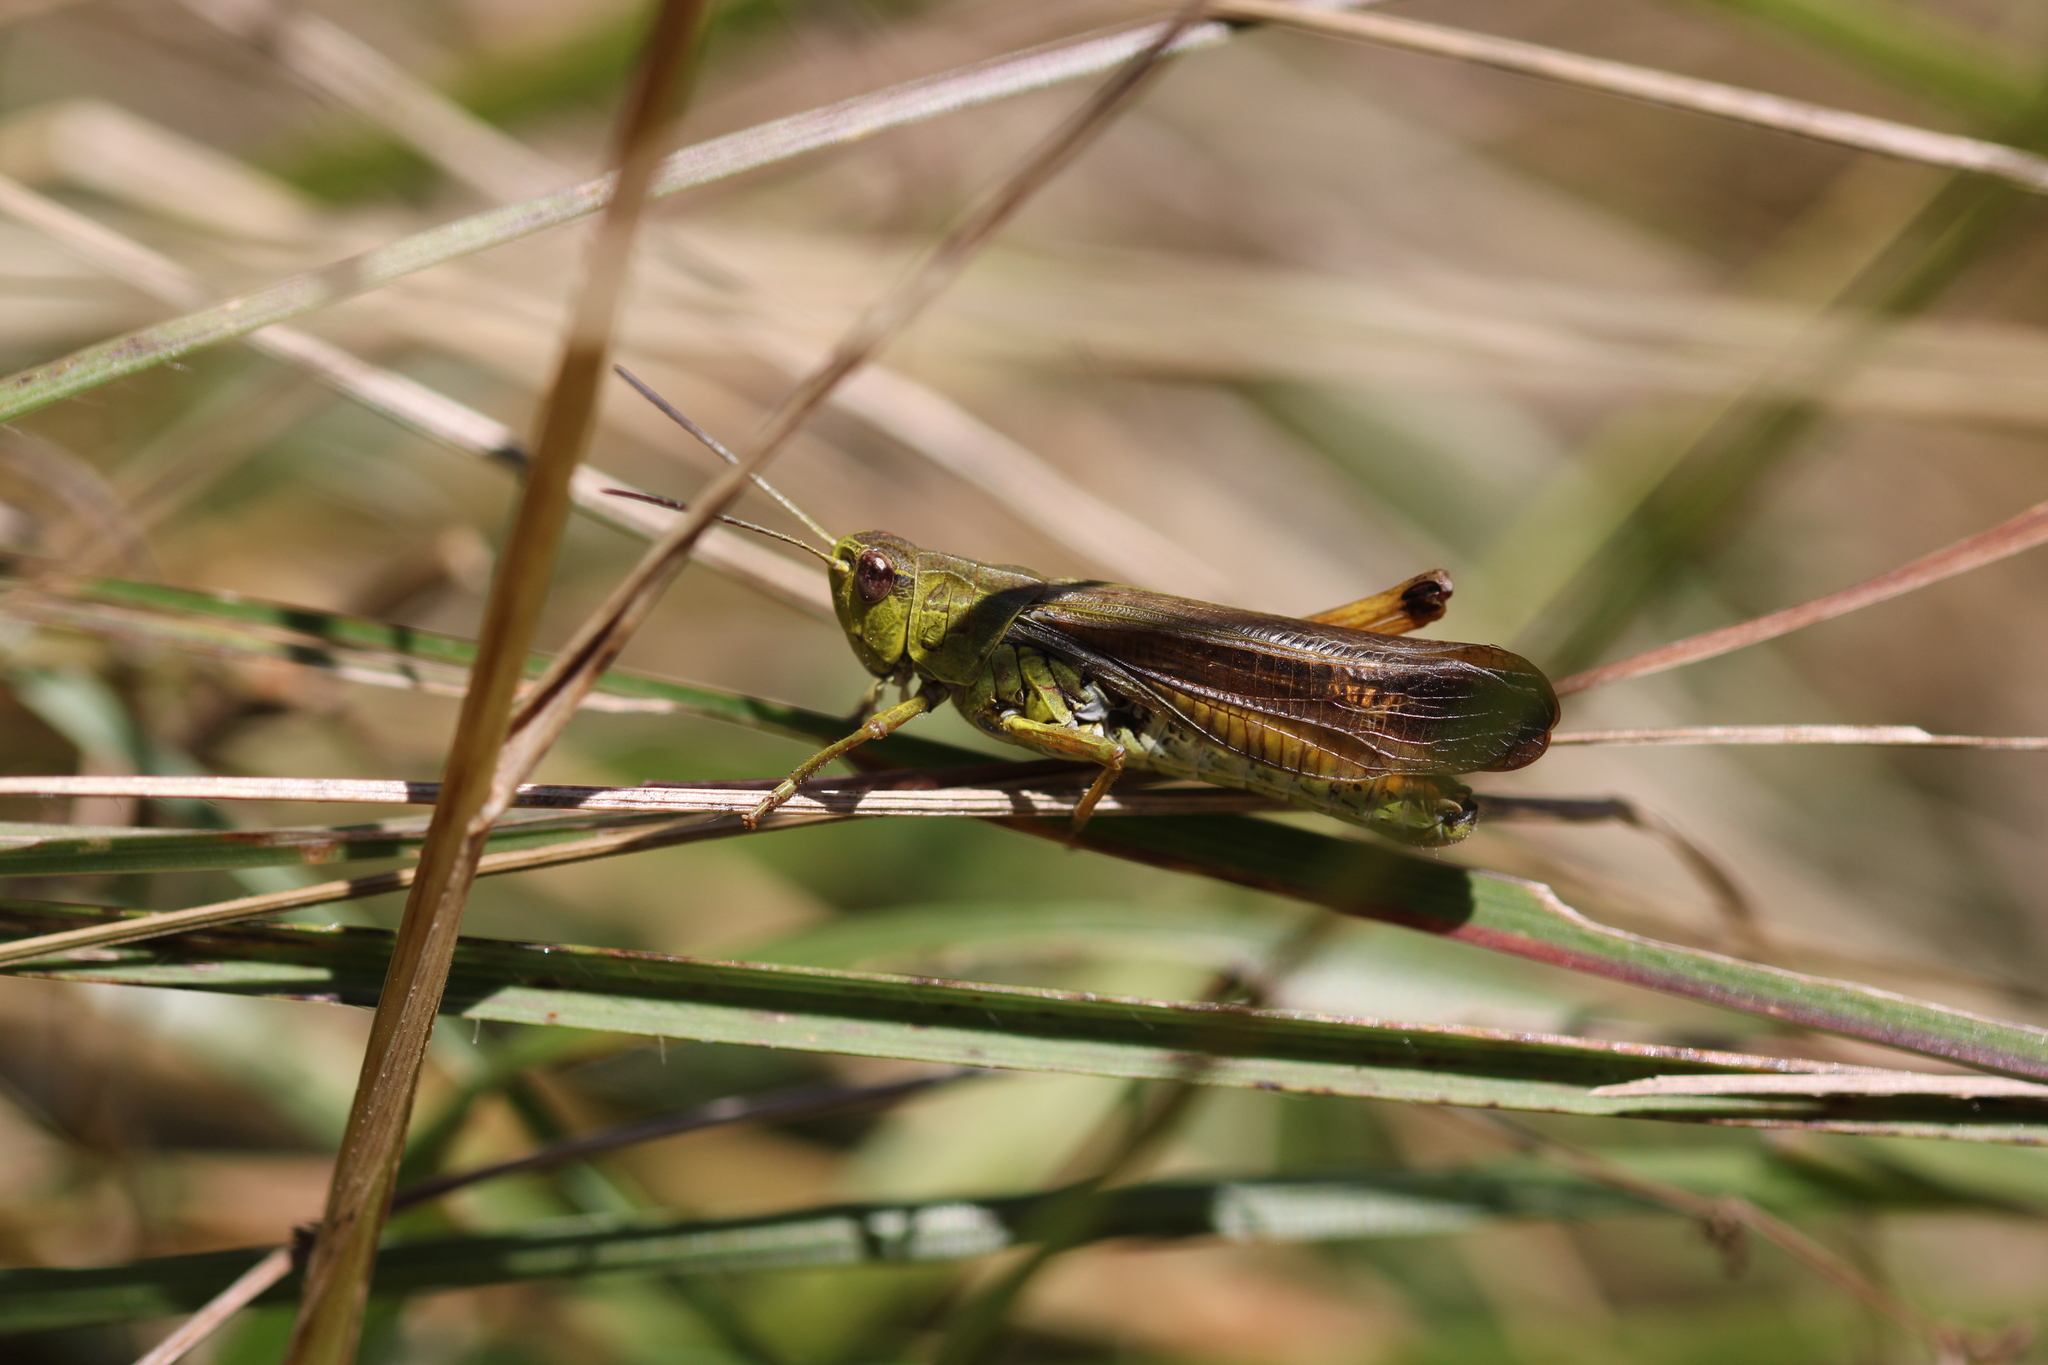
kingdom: Animalia
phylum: Arthropoda
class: Insecta
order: Orthoptera
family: Acrididae
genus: Stauroderus
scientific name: Stauroderus scalaris
